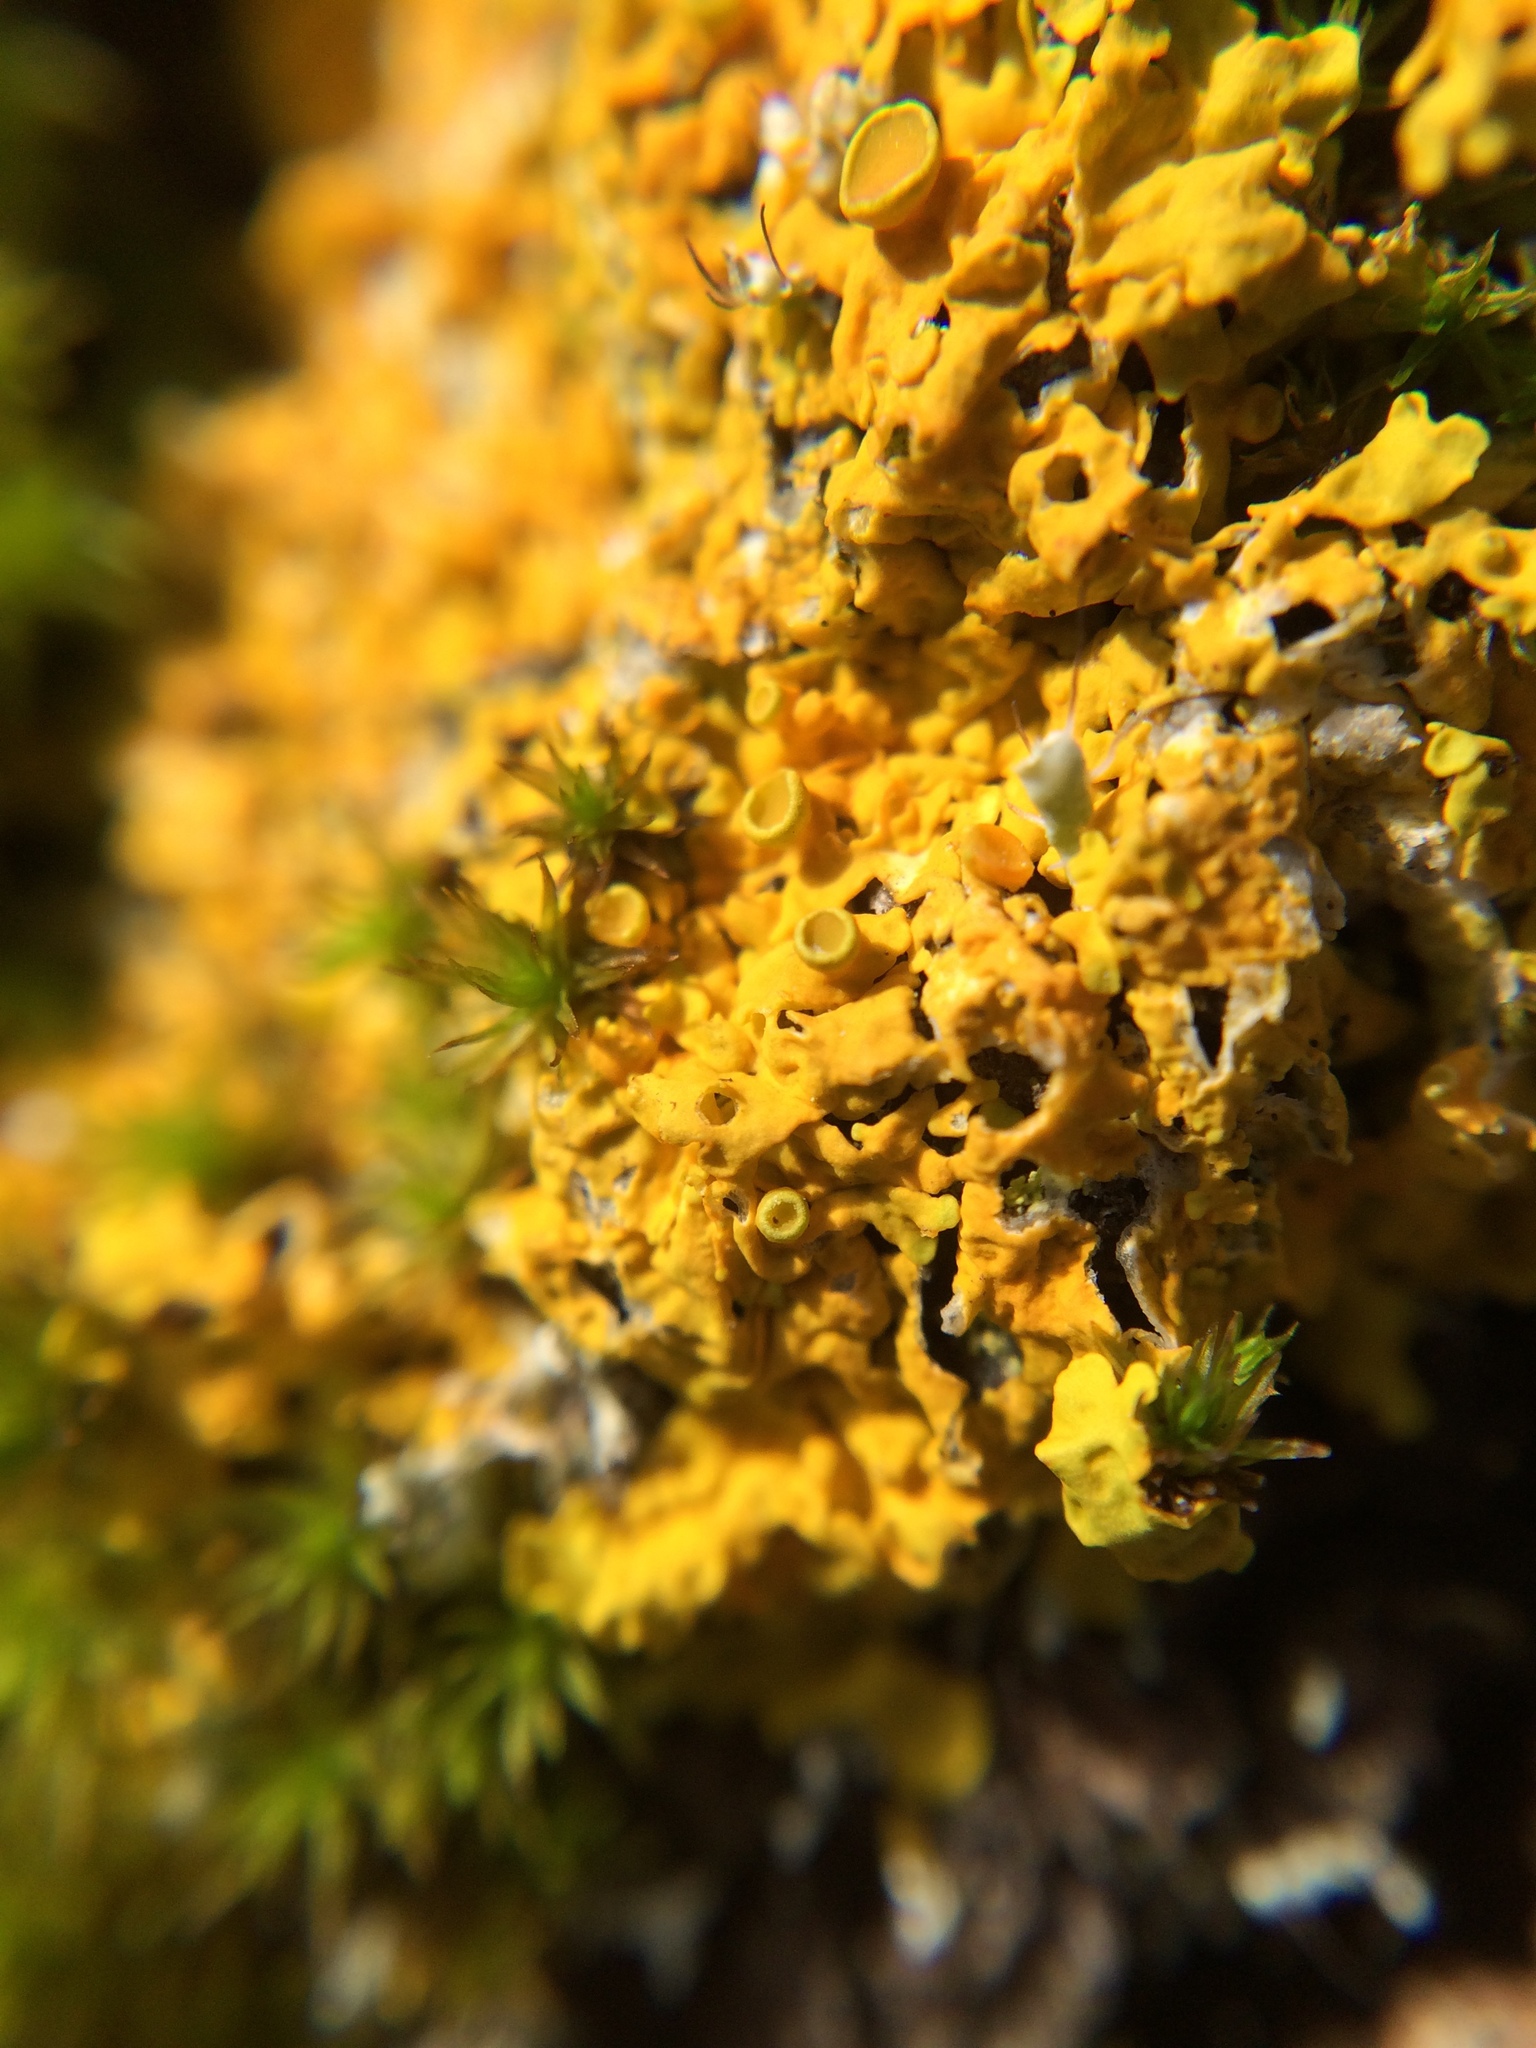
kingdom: Fungi
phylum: Ascomycota
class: Lecanoromycetes
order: Teloschistales
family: Teloschistaceae
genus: Xanthoria
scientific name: Xanthoria parietina
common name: Common orange lichen
